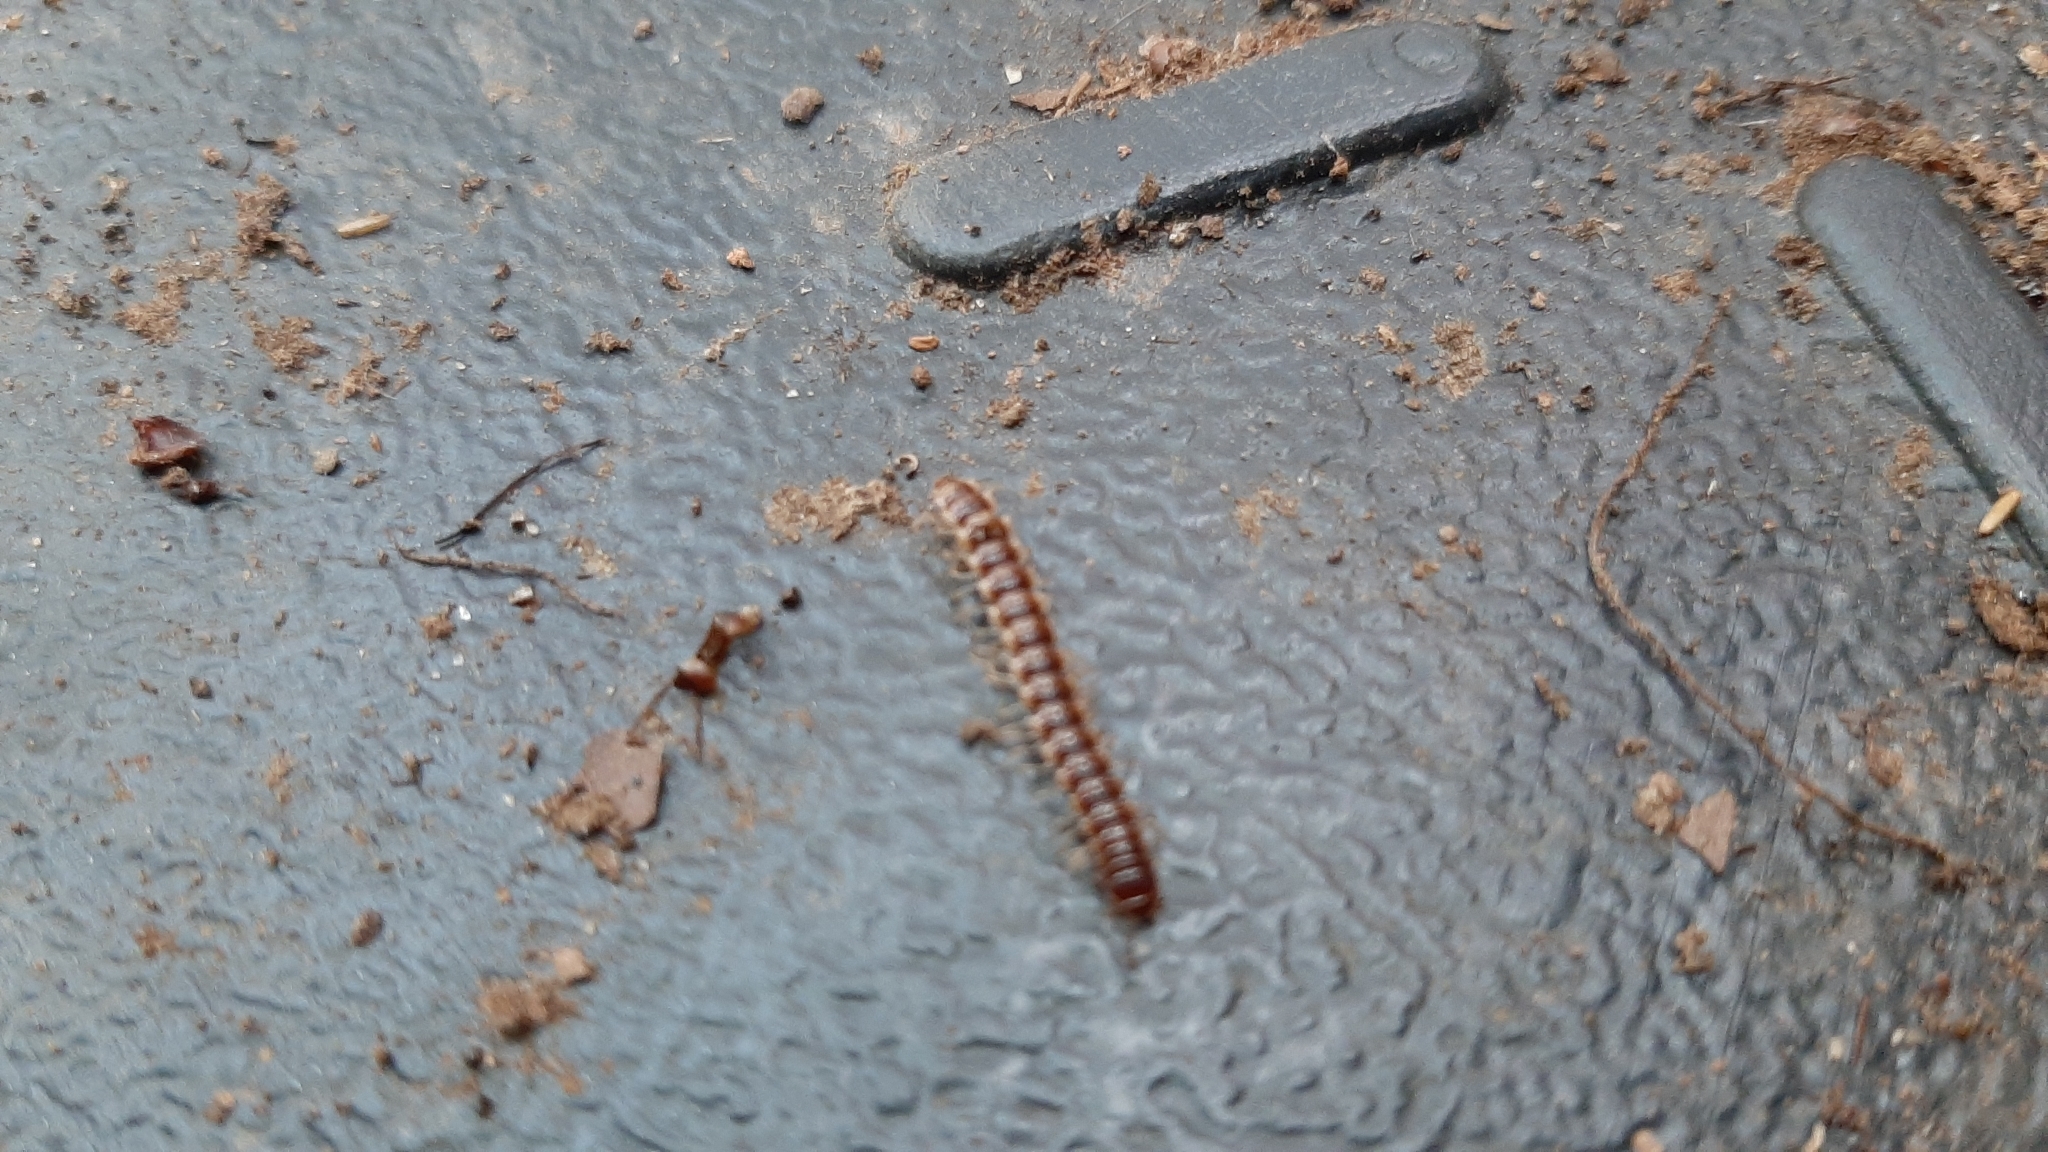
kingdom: Animalia
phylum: Arthropoda
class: Diplopoda
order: Polydesmida
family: Paradoxosomatidae
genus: Oxidus
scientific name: Oxidus gracilis
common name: Greenhouse millipede
